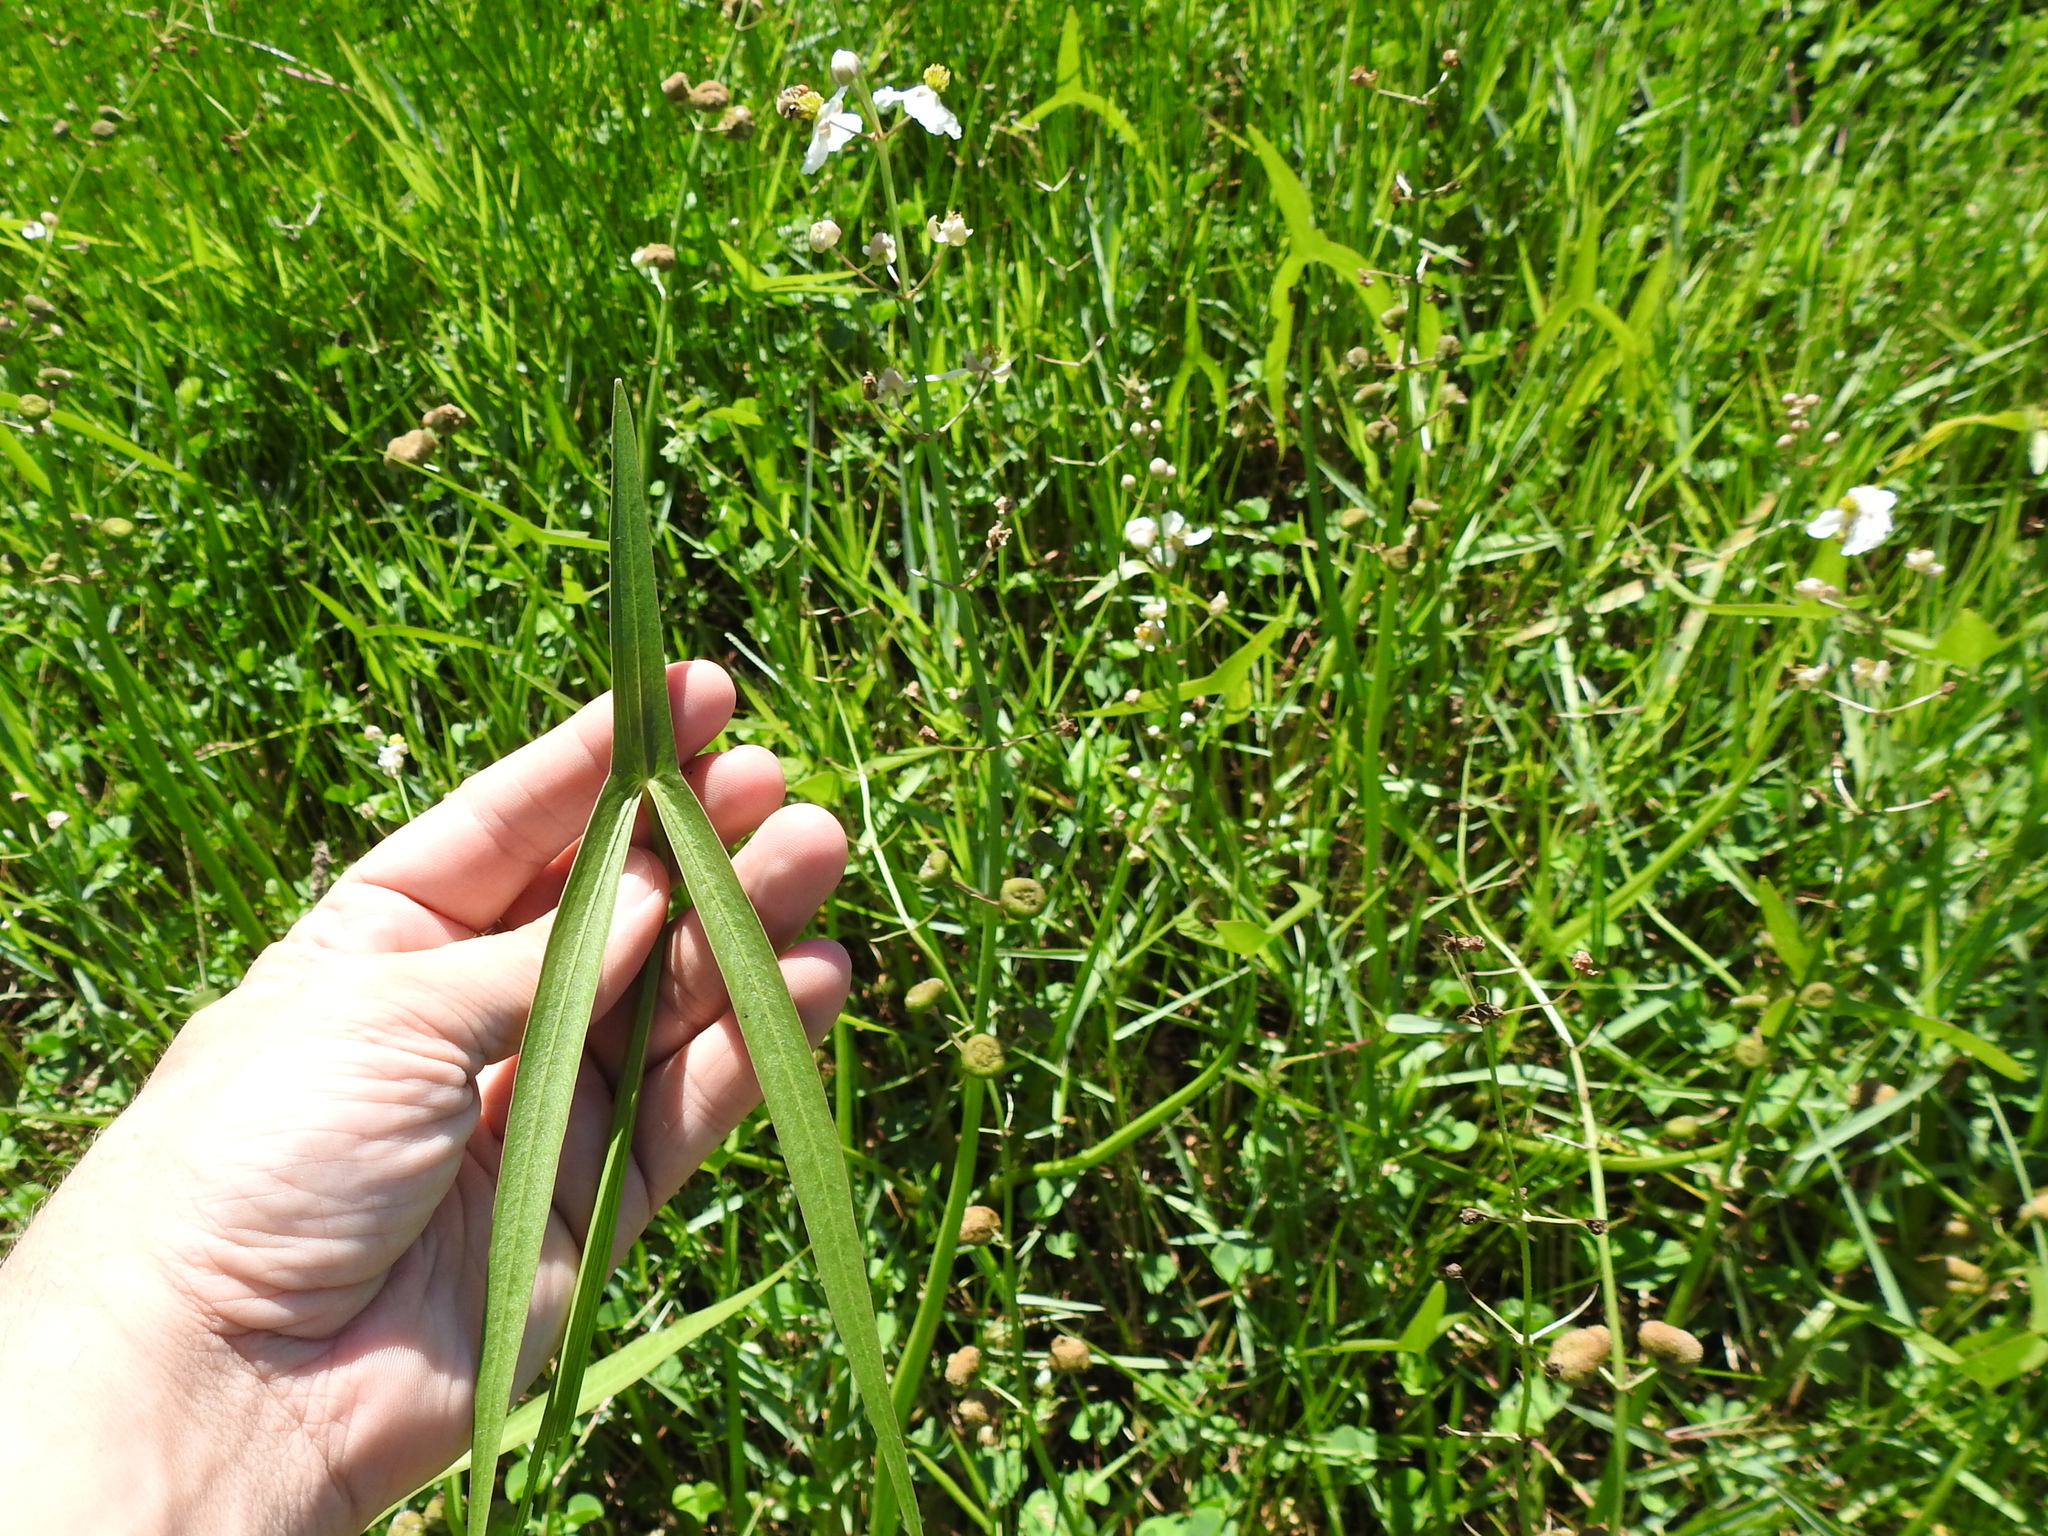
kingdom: Plantae
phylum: Tracheophyta
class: Liliopsida
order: Alismatales
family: Alismataceae
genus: Sagittaria
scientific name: Sagittaria longiloba
